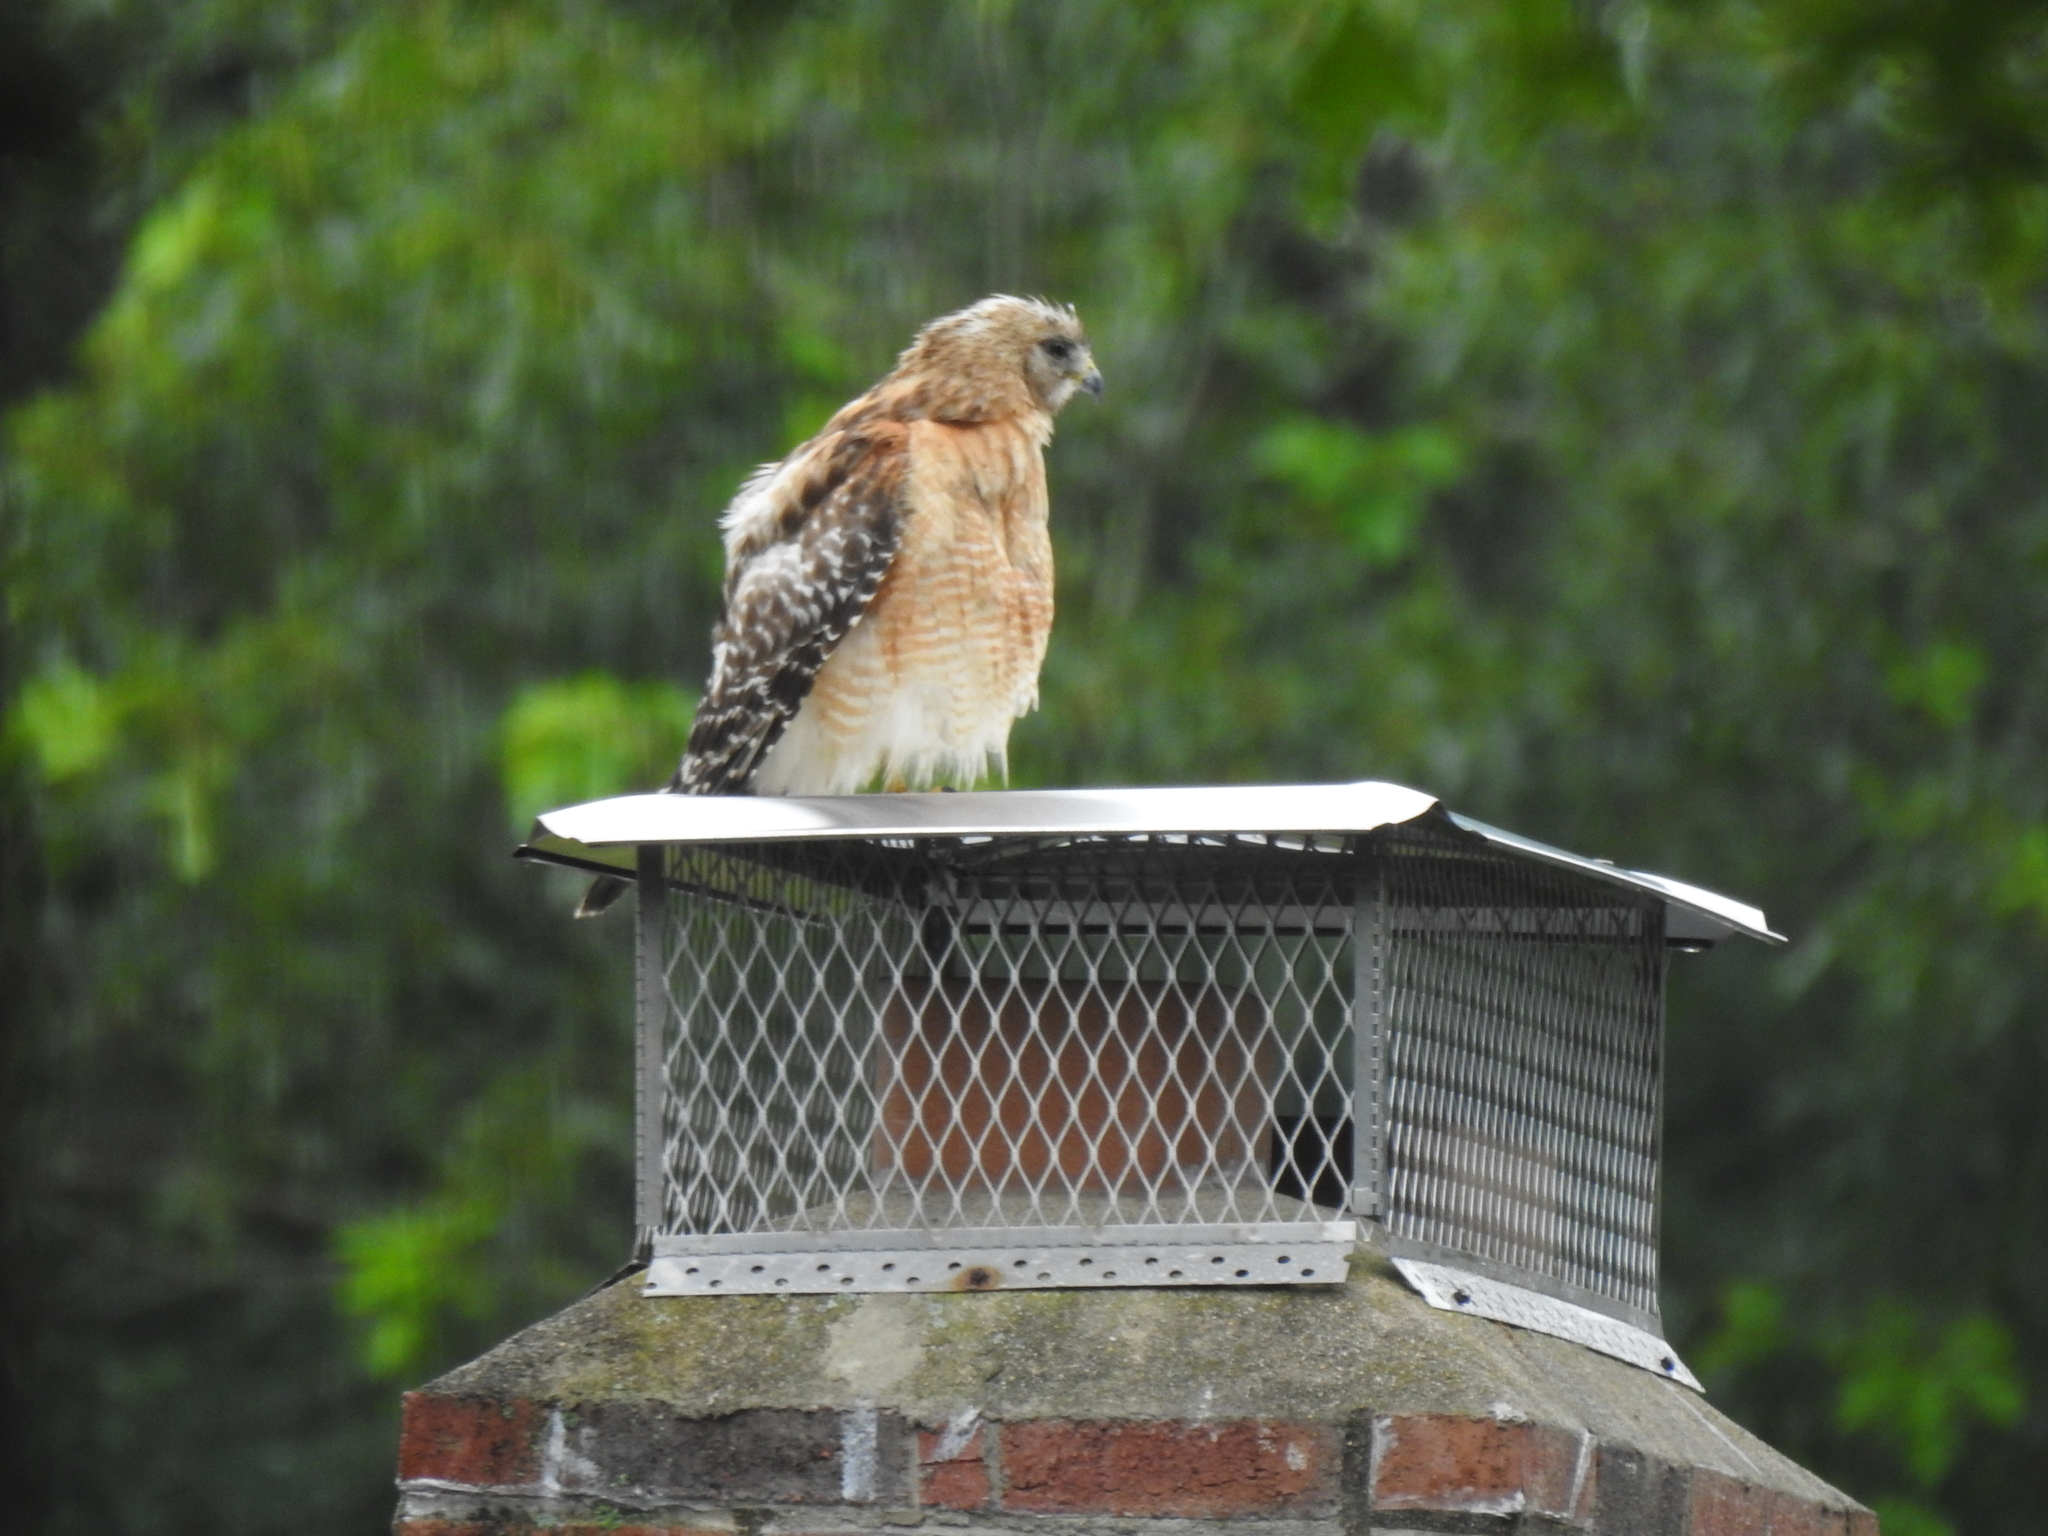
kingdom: Animalia
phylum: Chordata
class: Aves
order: Accipitriformes
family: Accipitridae
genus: Buteo
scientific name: Buteo lineatus
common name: Red-shouldered hawk
